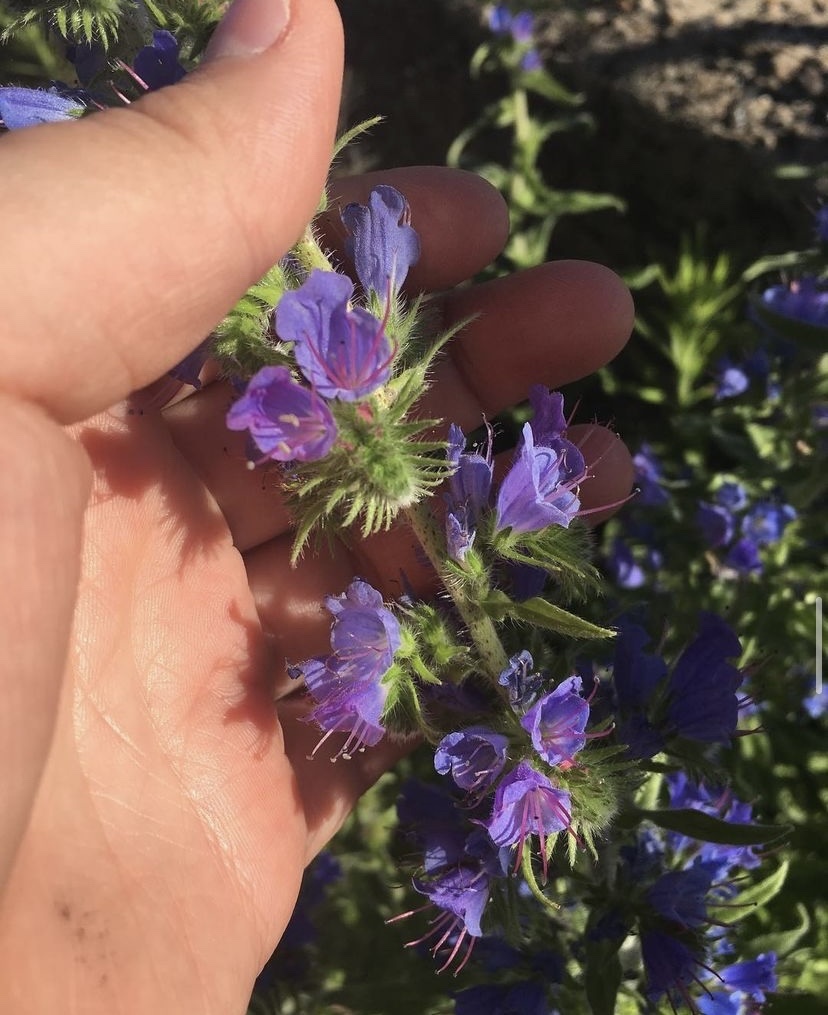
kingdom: Plantae
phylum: Tracheophyta
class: Magnoliopsida
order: Boraginales
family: Boraginaceae
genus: Echium
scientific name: Echium vulgare
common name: Common viper's bugloss
